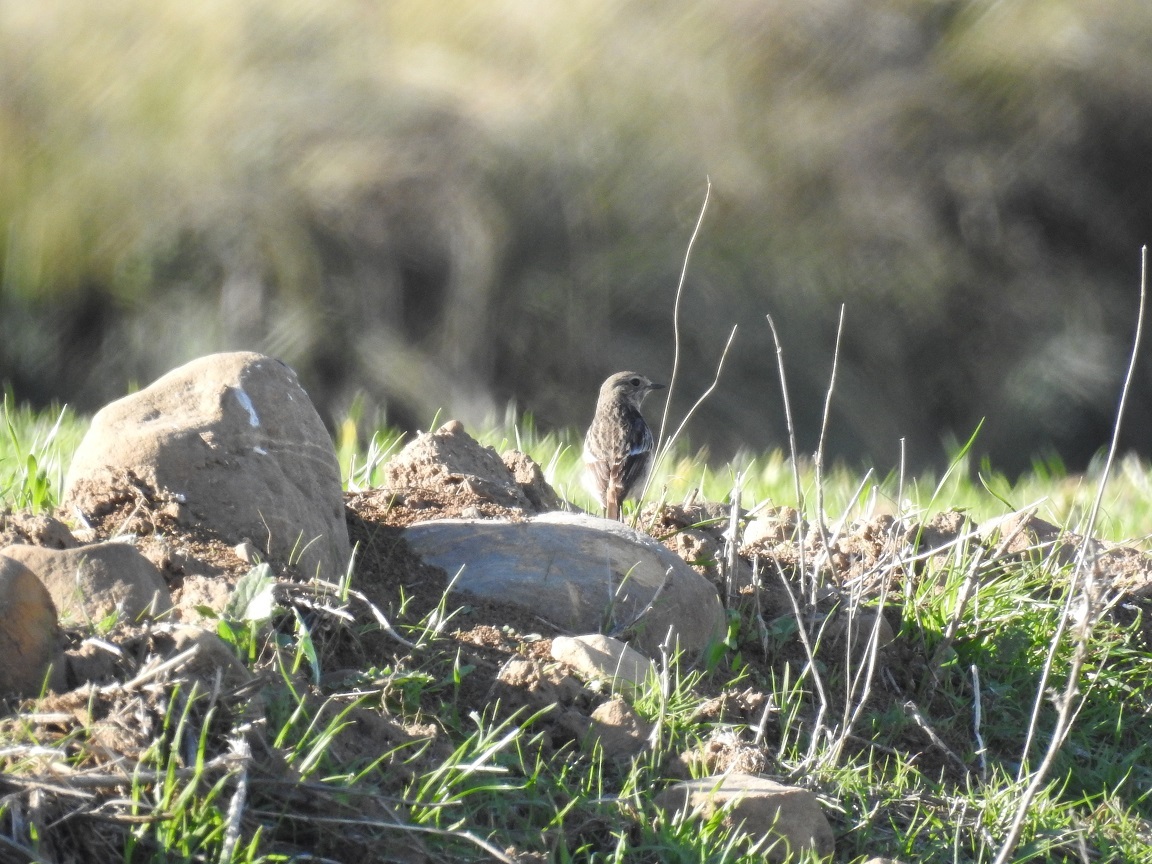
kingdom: Animalia
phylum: Chordata
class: Aves
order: Passeriformes
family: Muscicapidae
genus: Saxicola
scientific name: Saxicola rubicola
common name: European stonechat
